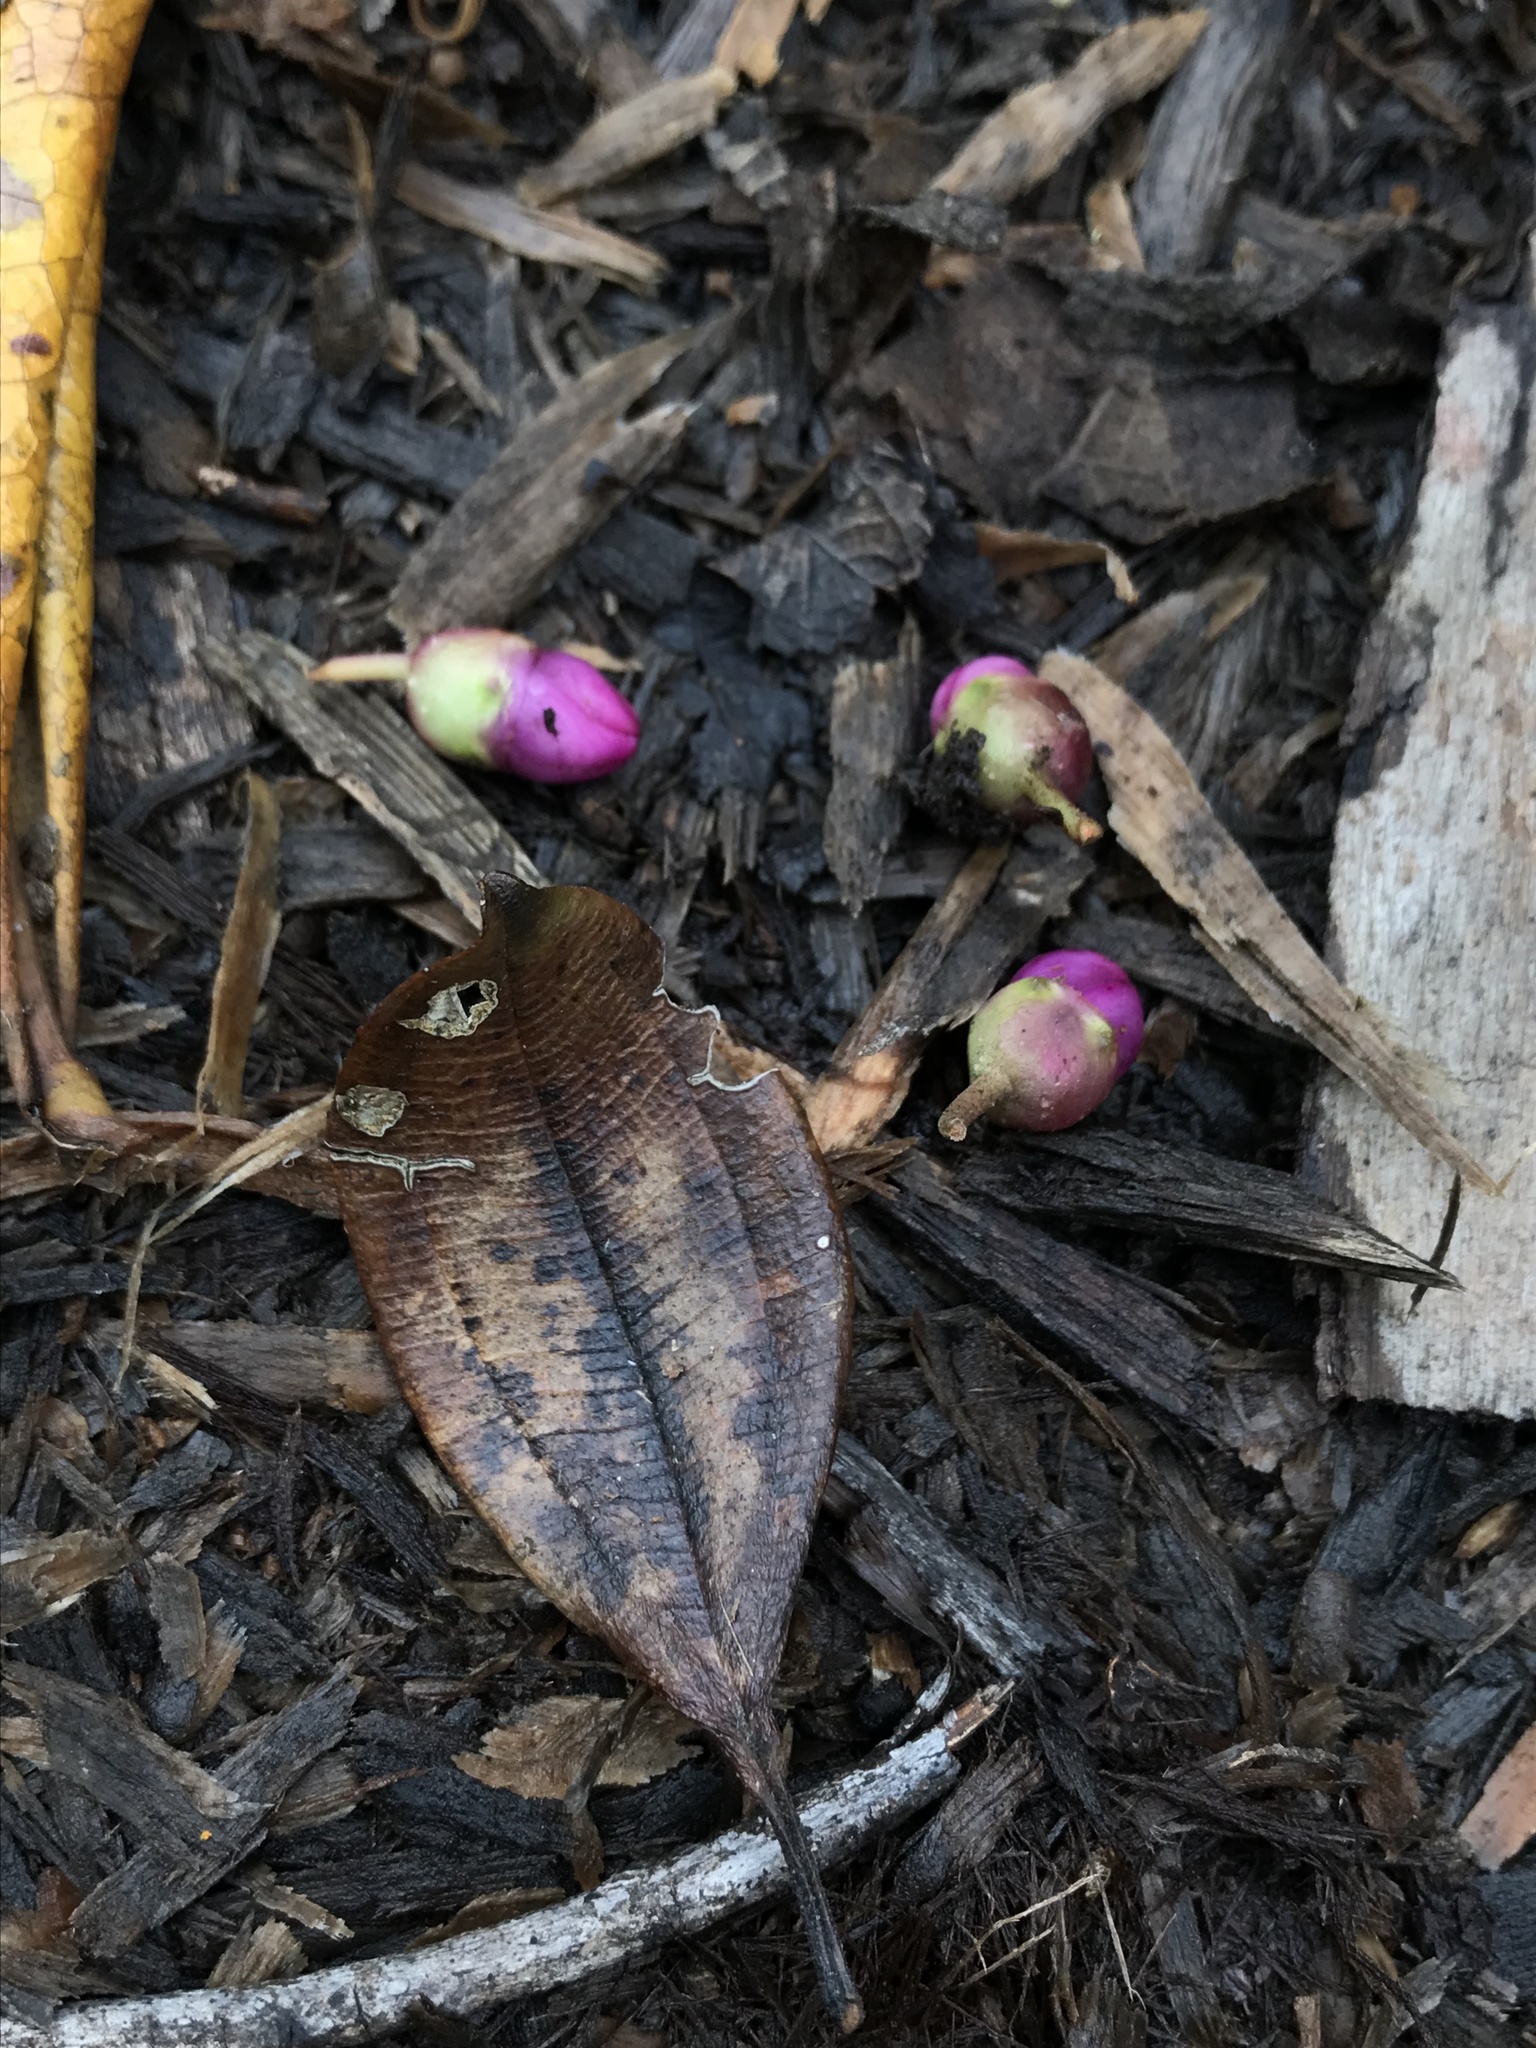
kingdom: Plantae
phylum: Tracheophyta
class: Magnoliopsida
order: Myrtales
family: Melastomataceae
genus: Axinaea
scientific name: Axinaea macrophylla
